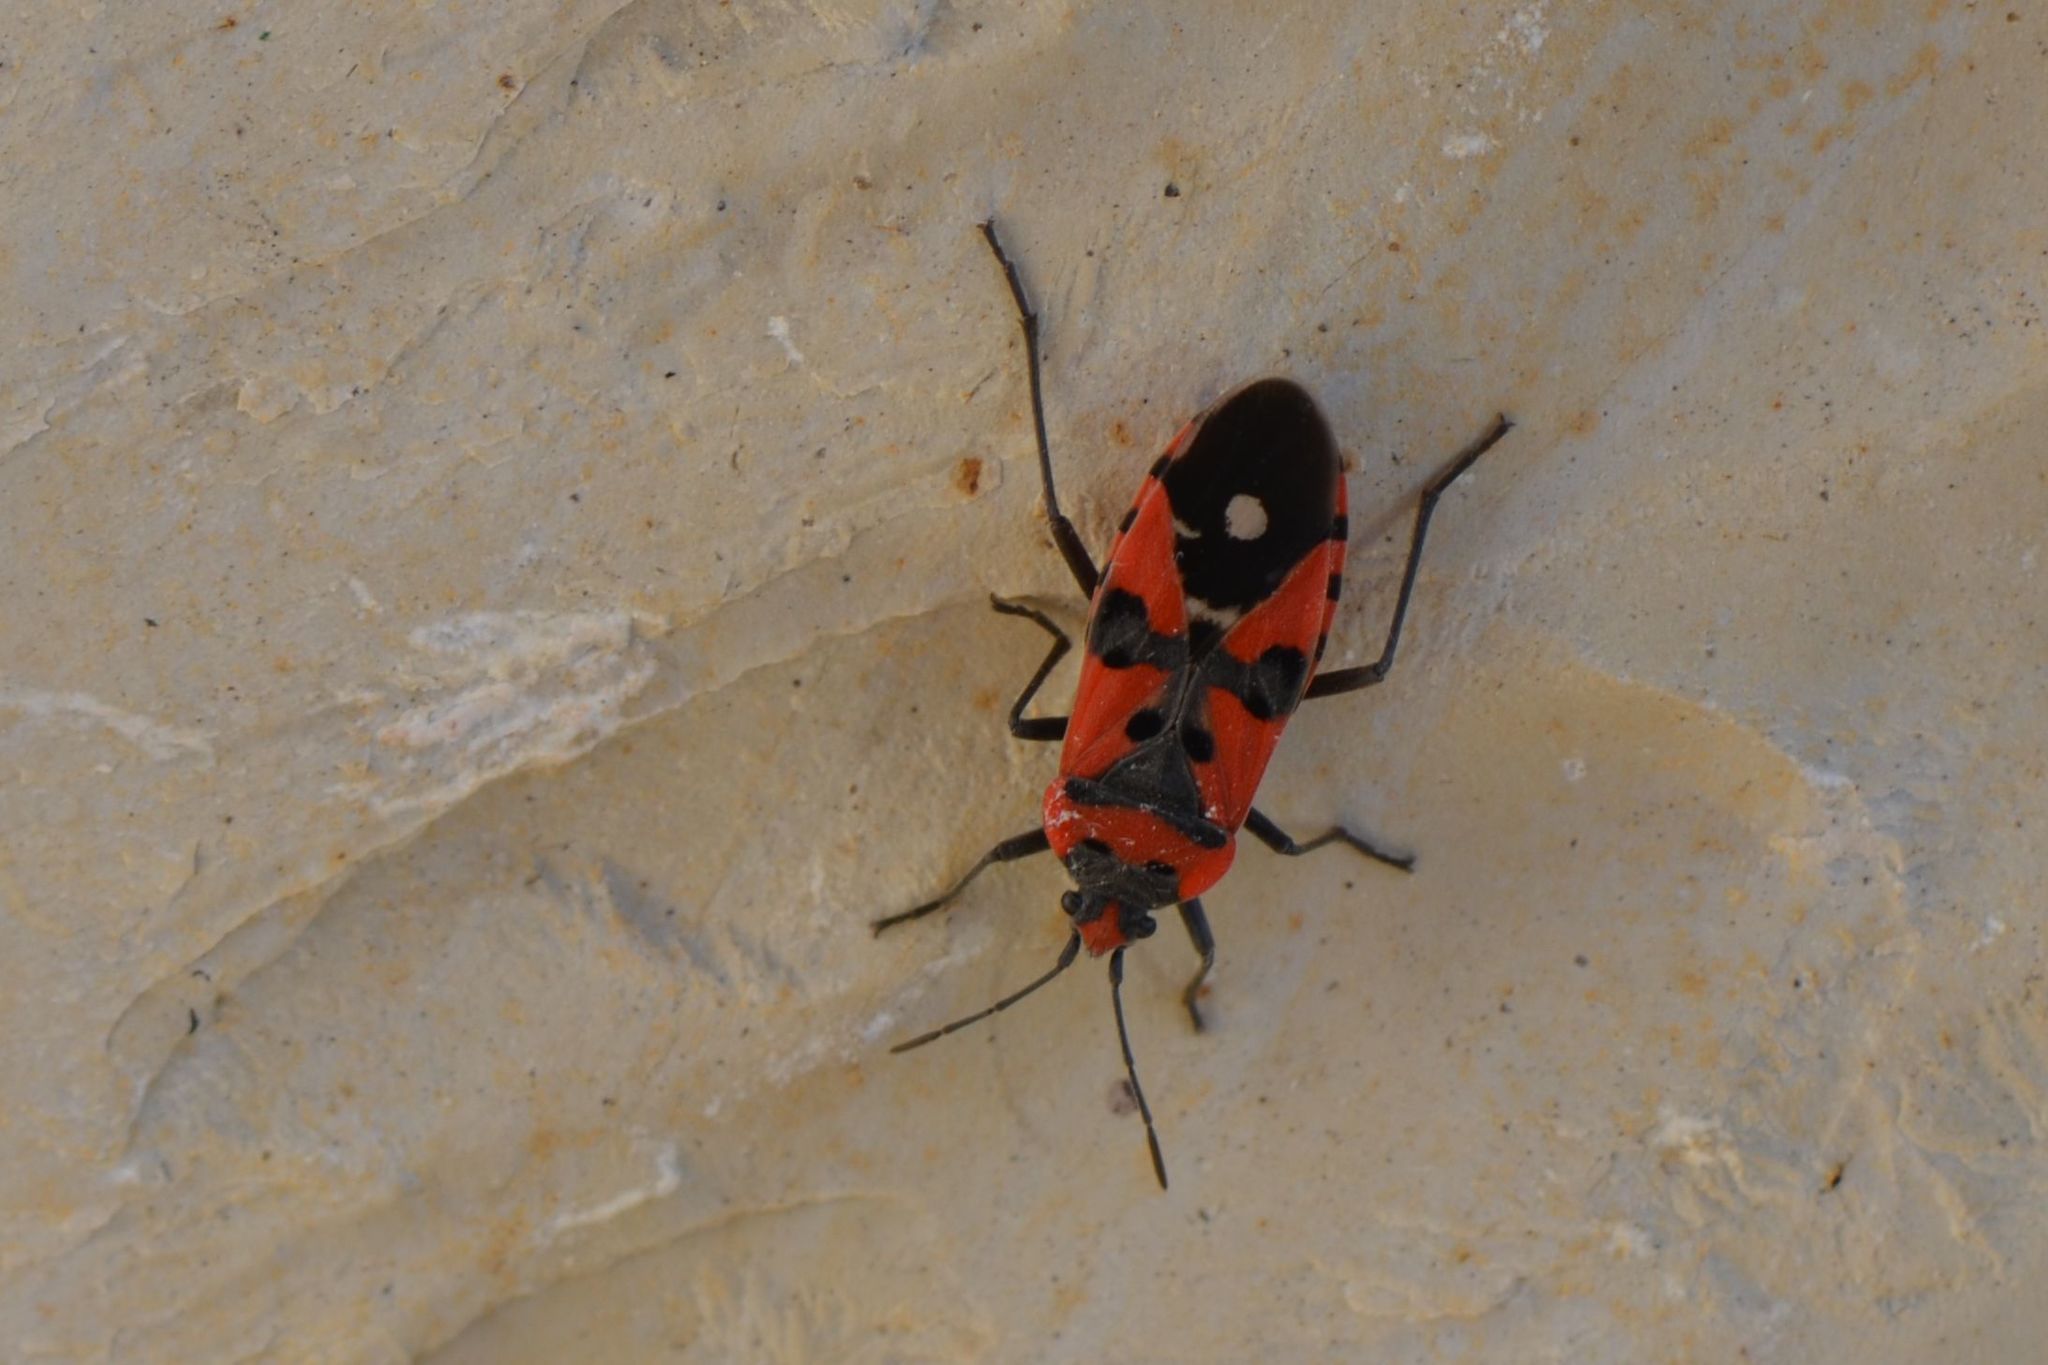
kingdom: Animalia
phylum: Arthropoda
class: Insecta
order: Hemiptera
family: Lygaeidae
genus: Lygaeus
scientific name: Lygaeus equestris
